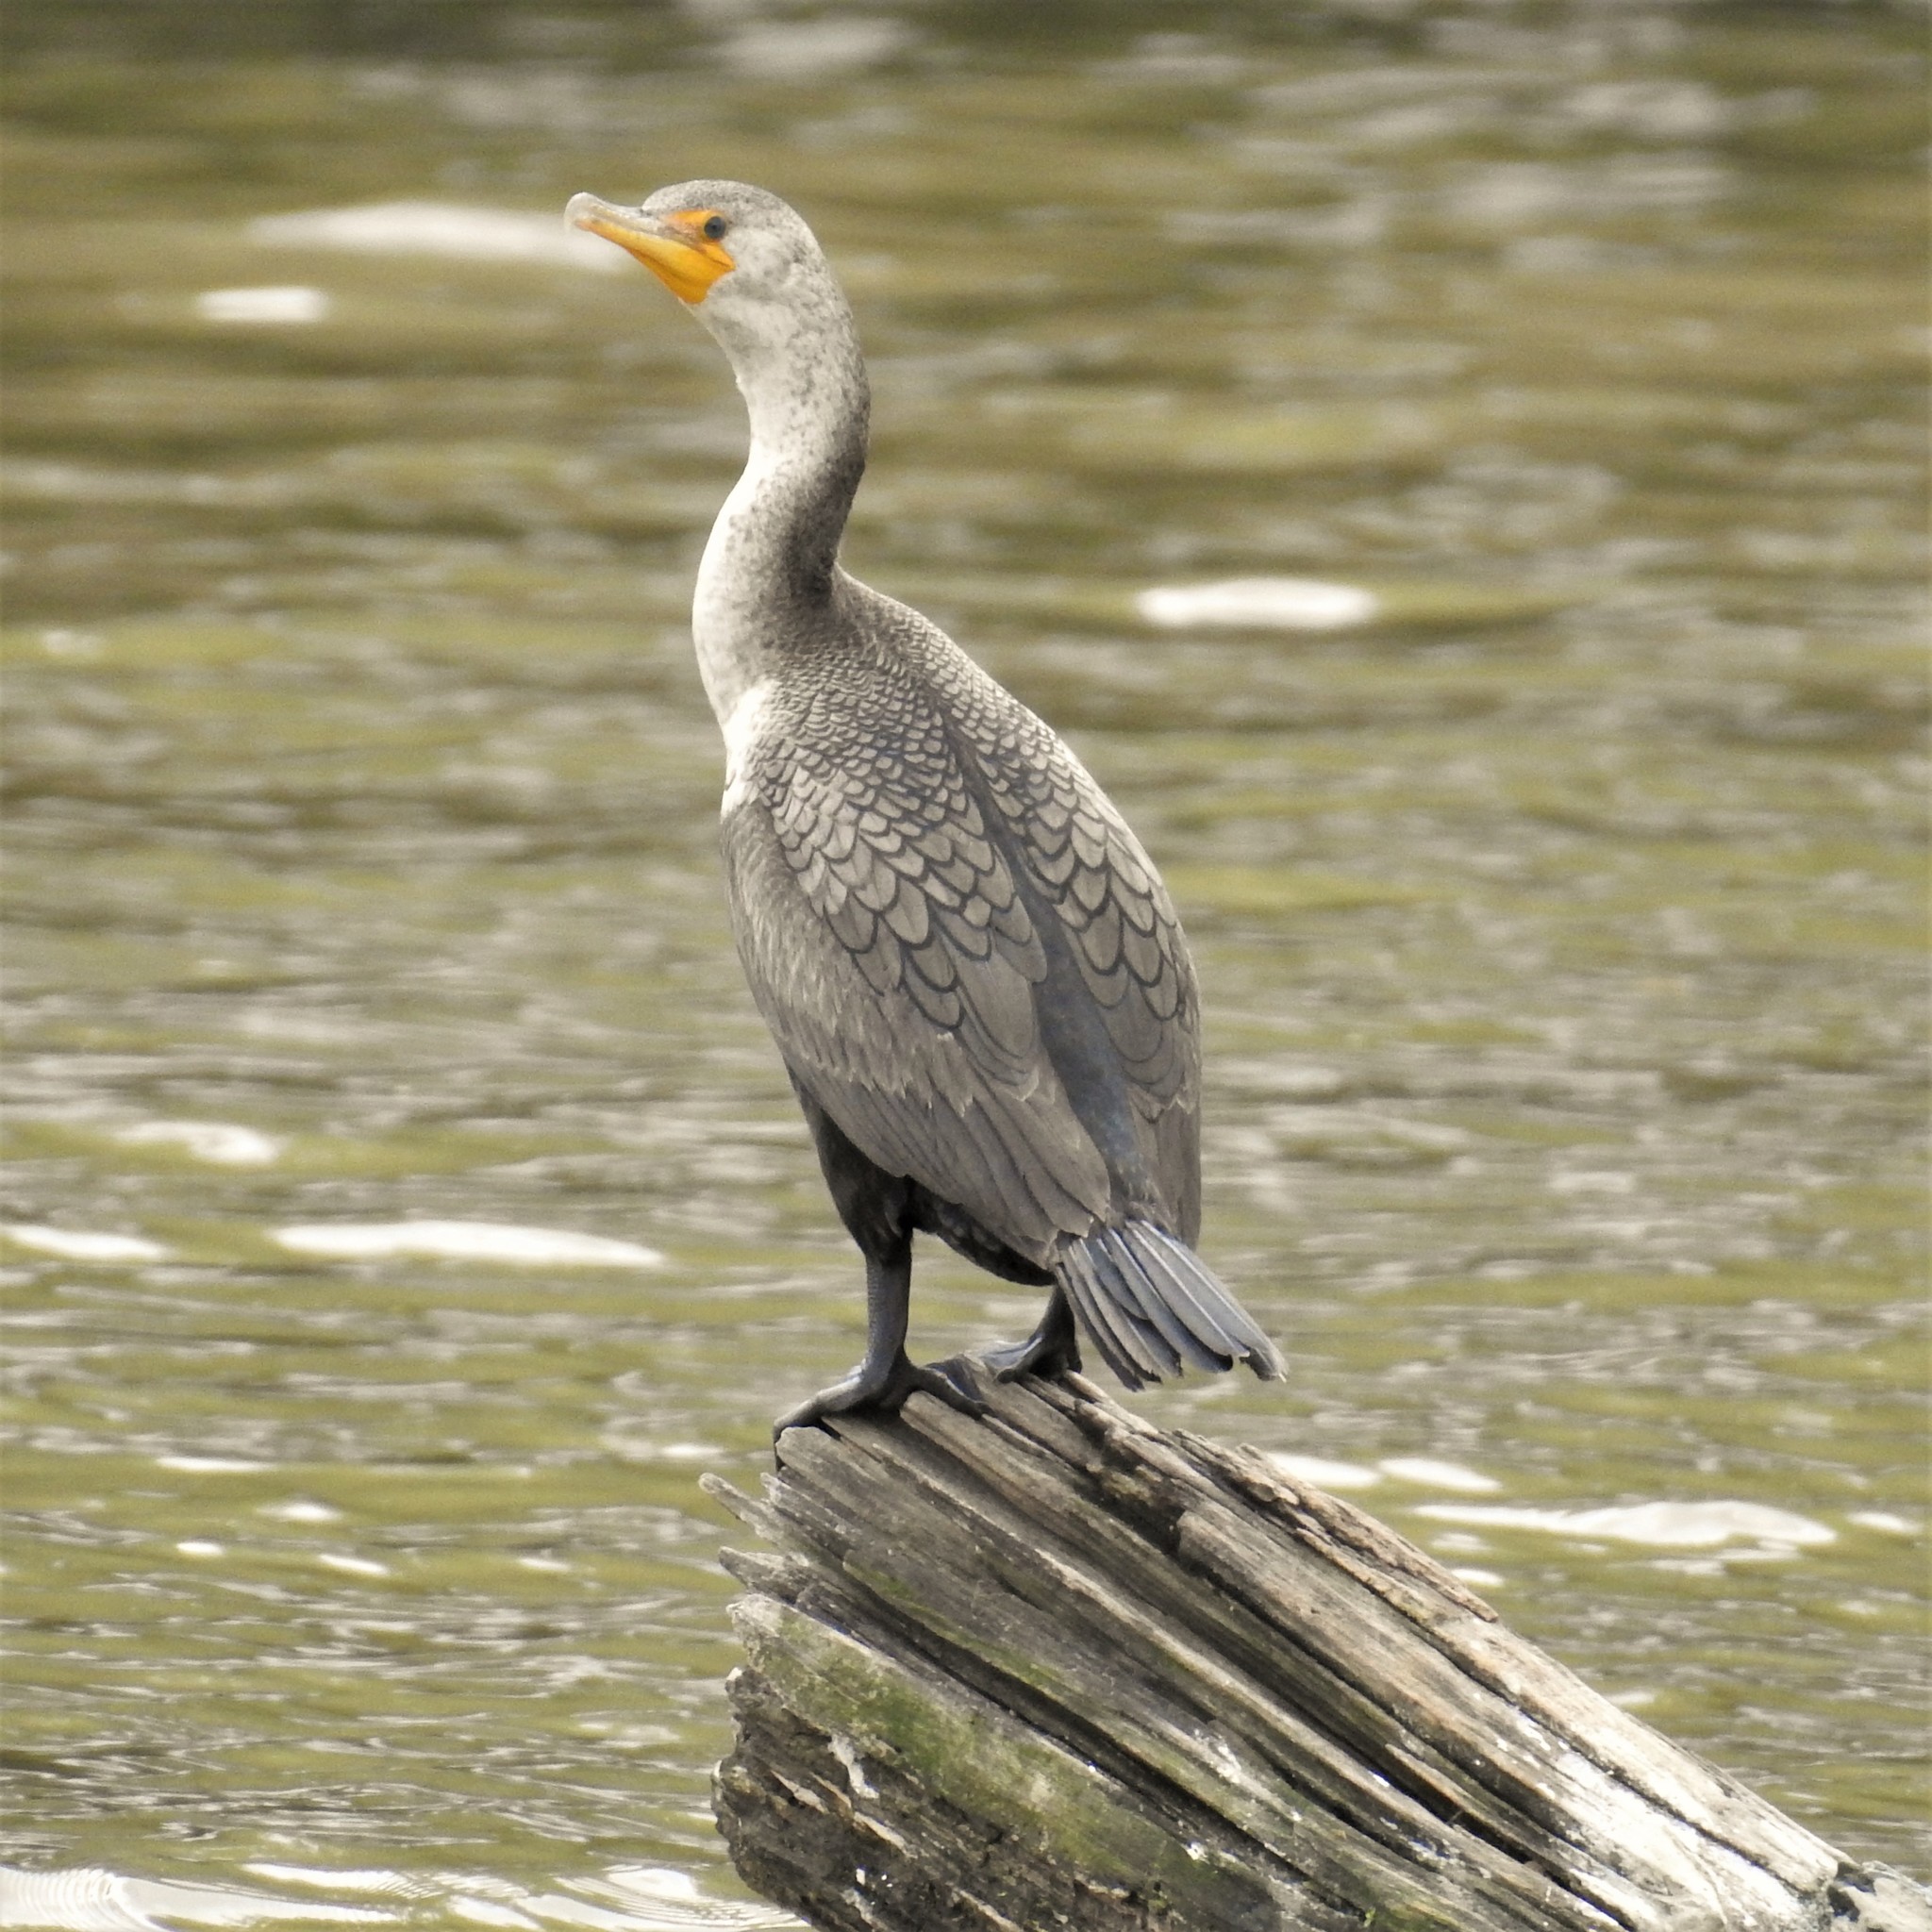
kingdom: Animalia
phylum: Chordata
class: Aves
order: Suliformes
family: Phalacrocoracidae
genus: Phalacrocorax
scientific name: Phalacrocorax auritus
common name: Double-crested cormorant
